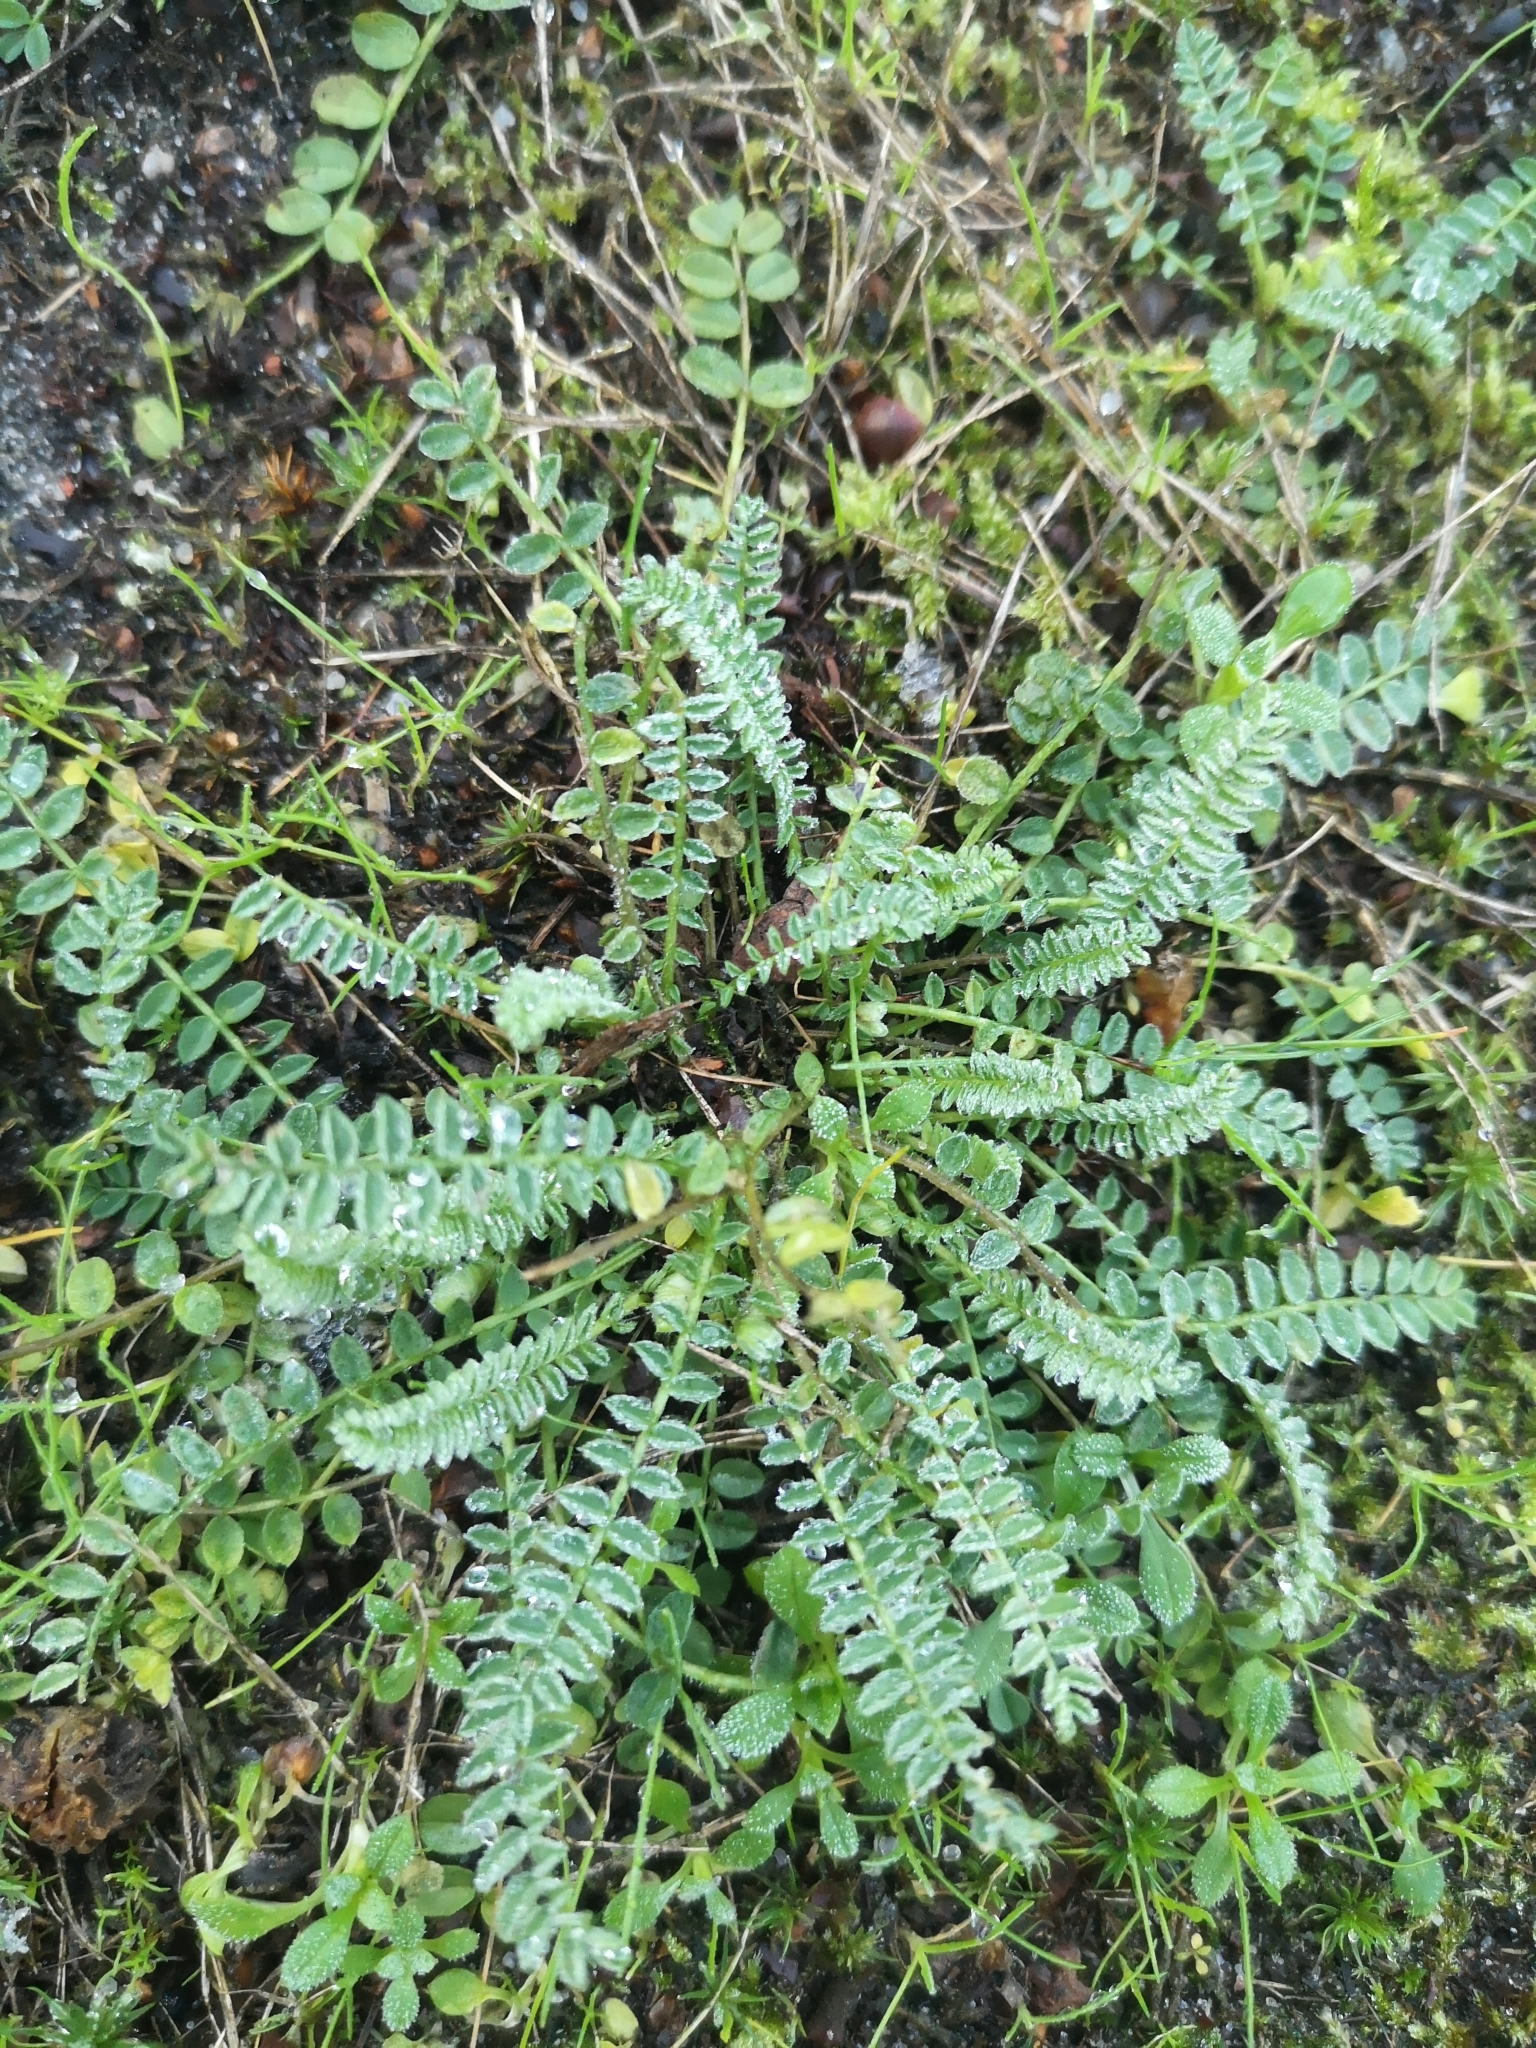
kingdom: Plantae
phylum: Tracheophyta
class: Magnoliopsida
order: Fabales
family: Fabaceae
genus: Ornithopus
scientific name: Ornithopus perpusillus
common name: Bird's-foot
